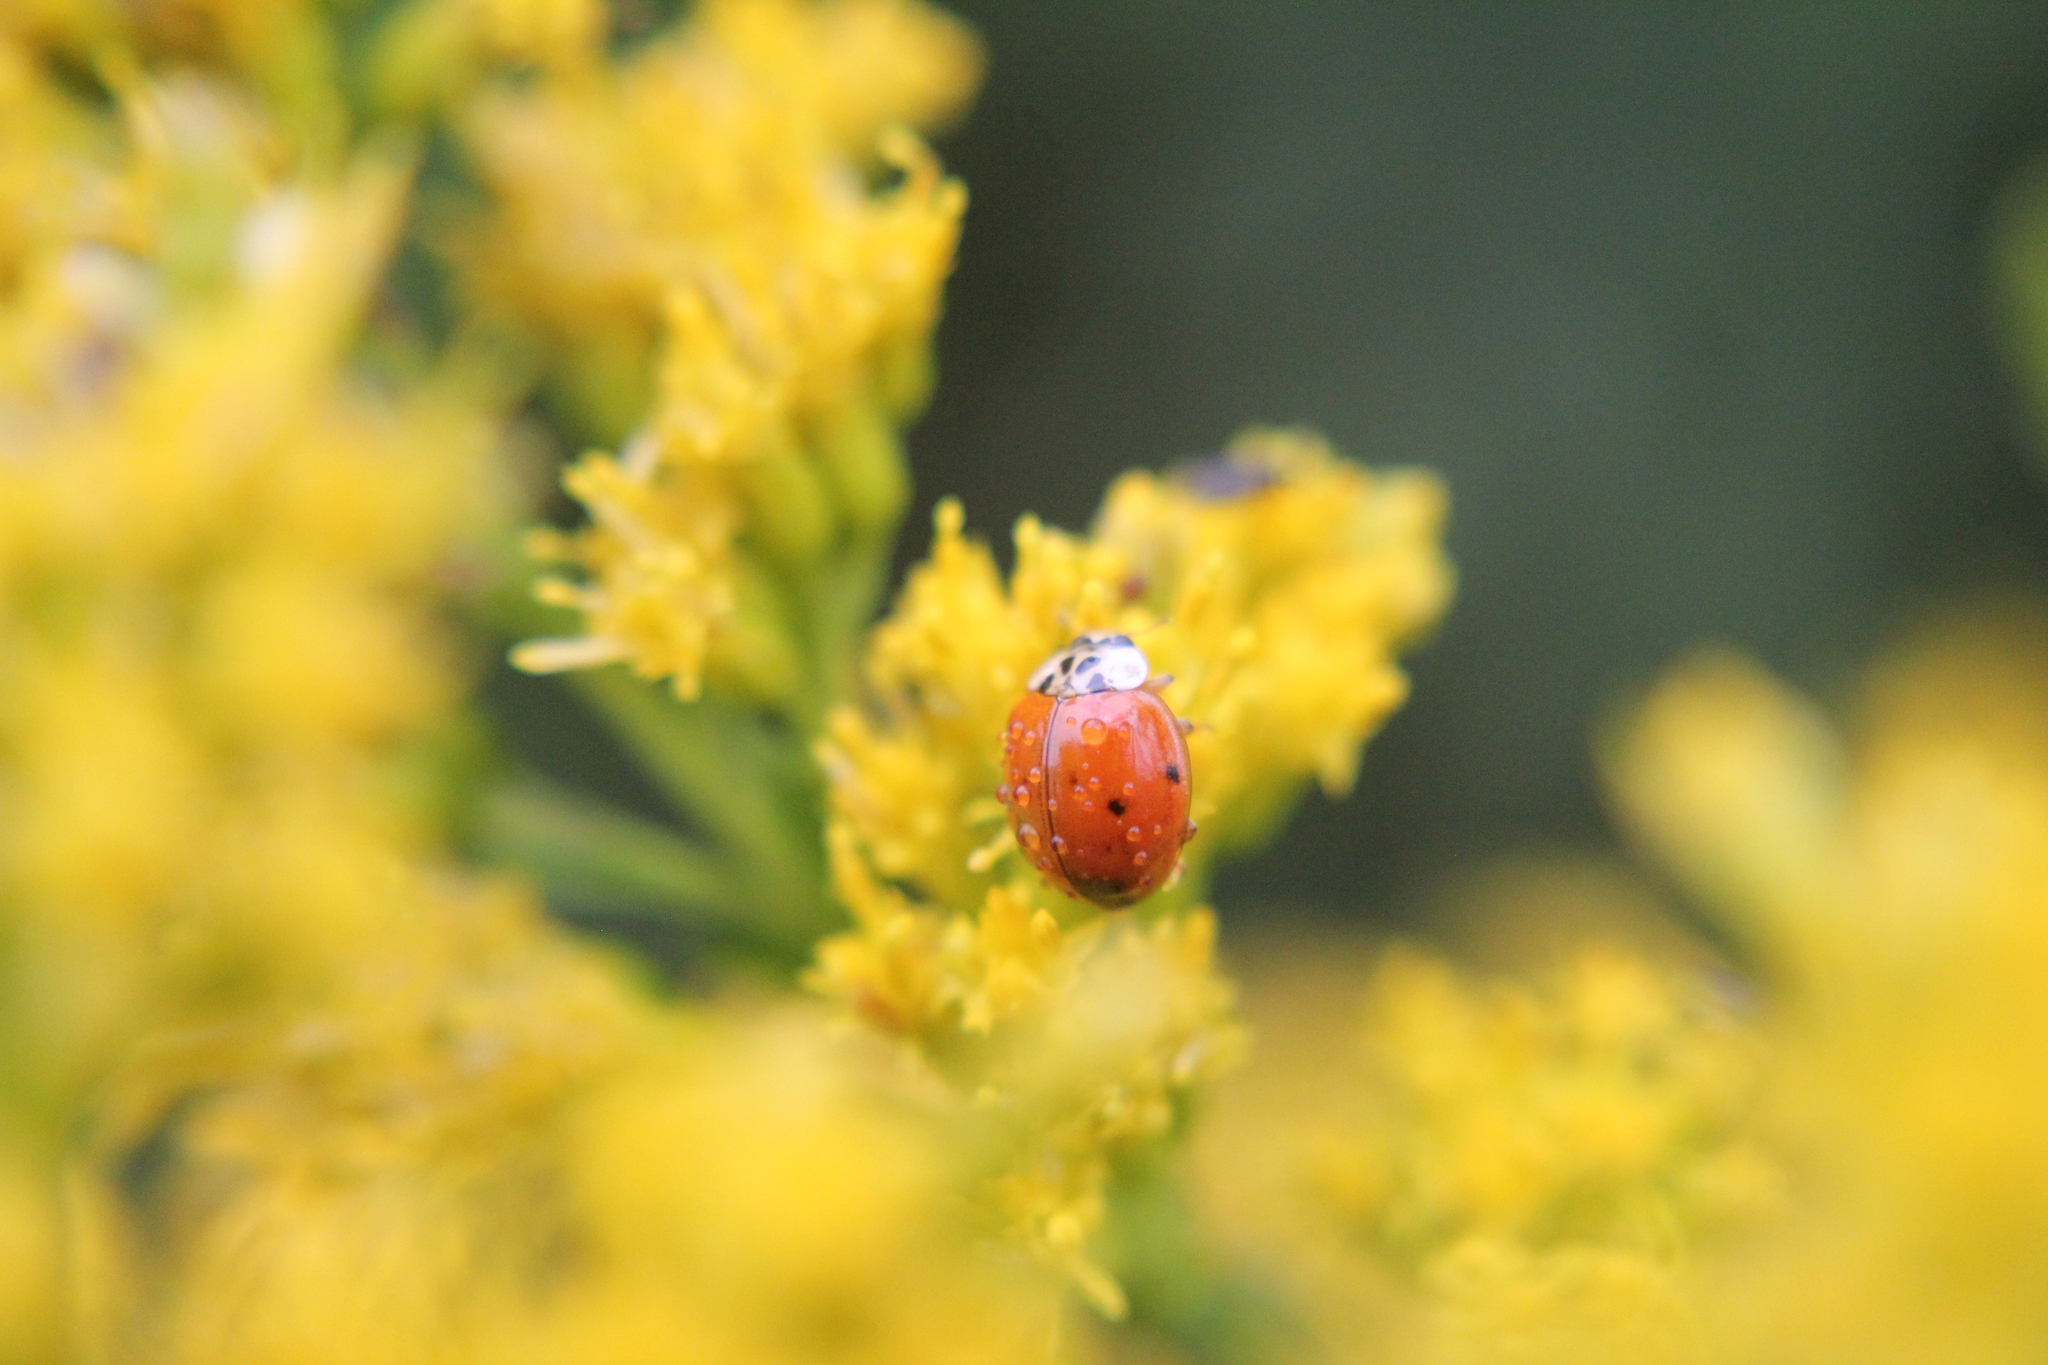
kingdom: Animalia
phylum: Arthropoda
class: Insecta
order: Coleoptera
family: Coccinellidae
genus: Harmonia
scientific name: Harmonia axyridis
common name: Harlequin ladybird
